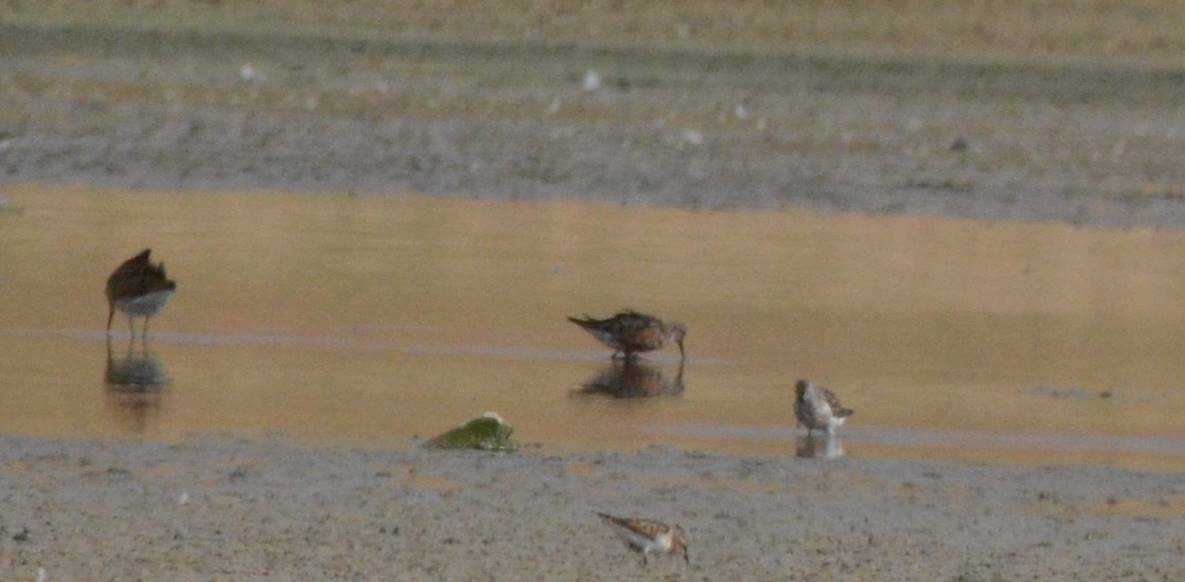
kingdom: Animalia
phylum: Chordata
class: Aves
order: Charadriiformes
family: Scolopacidae
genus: Calidris
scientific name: Calidris ferruginea
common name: Curlew sandpiper
